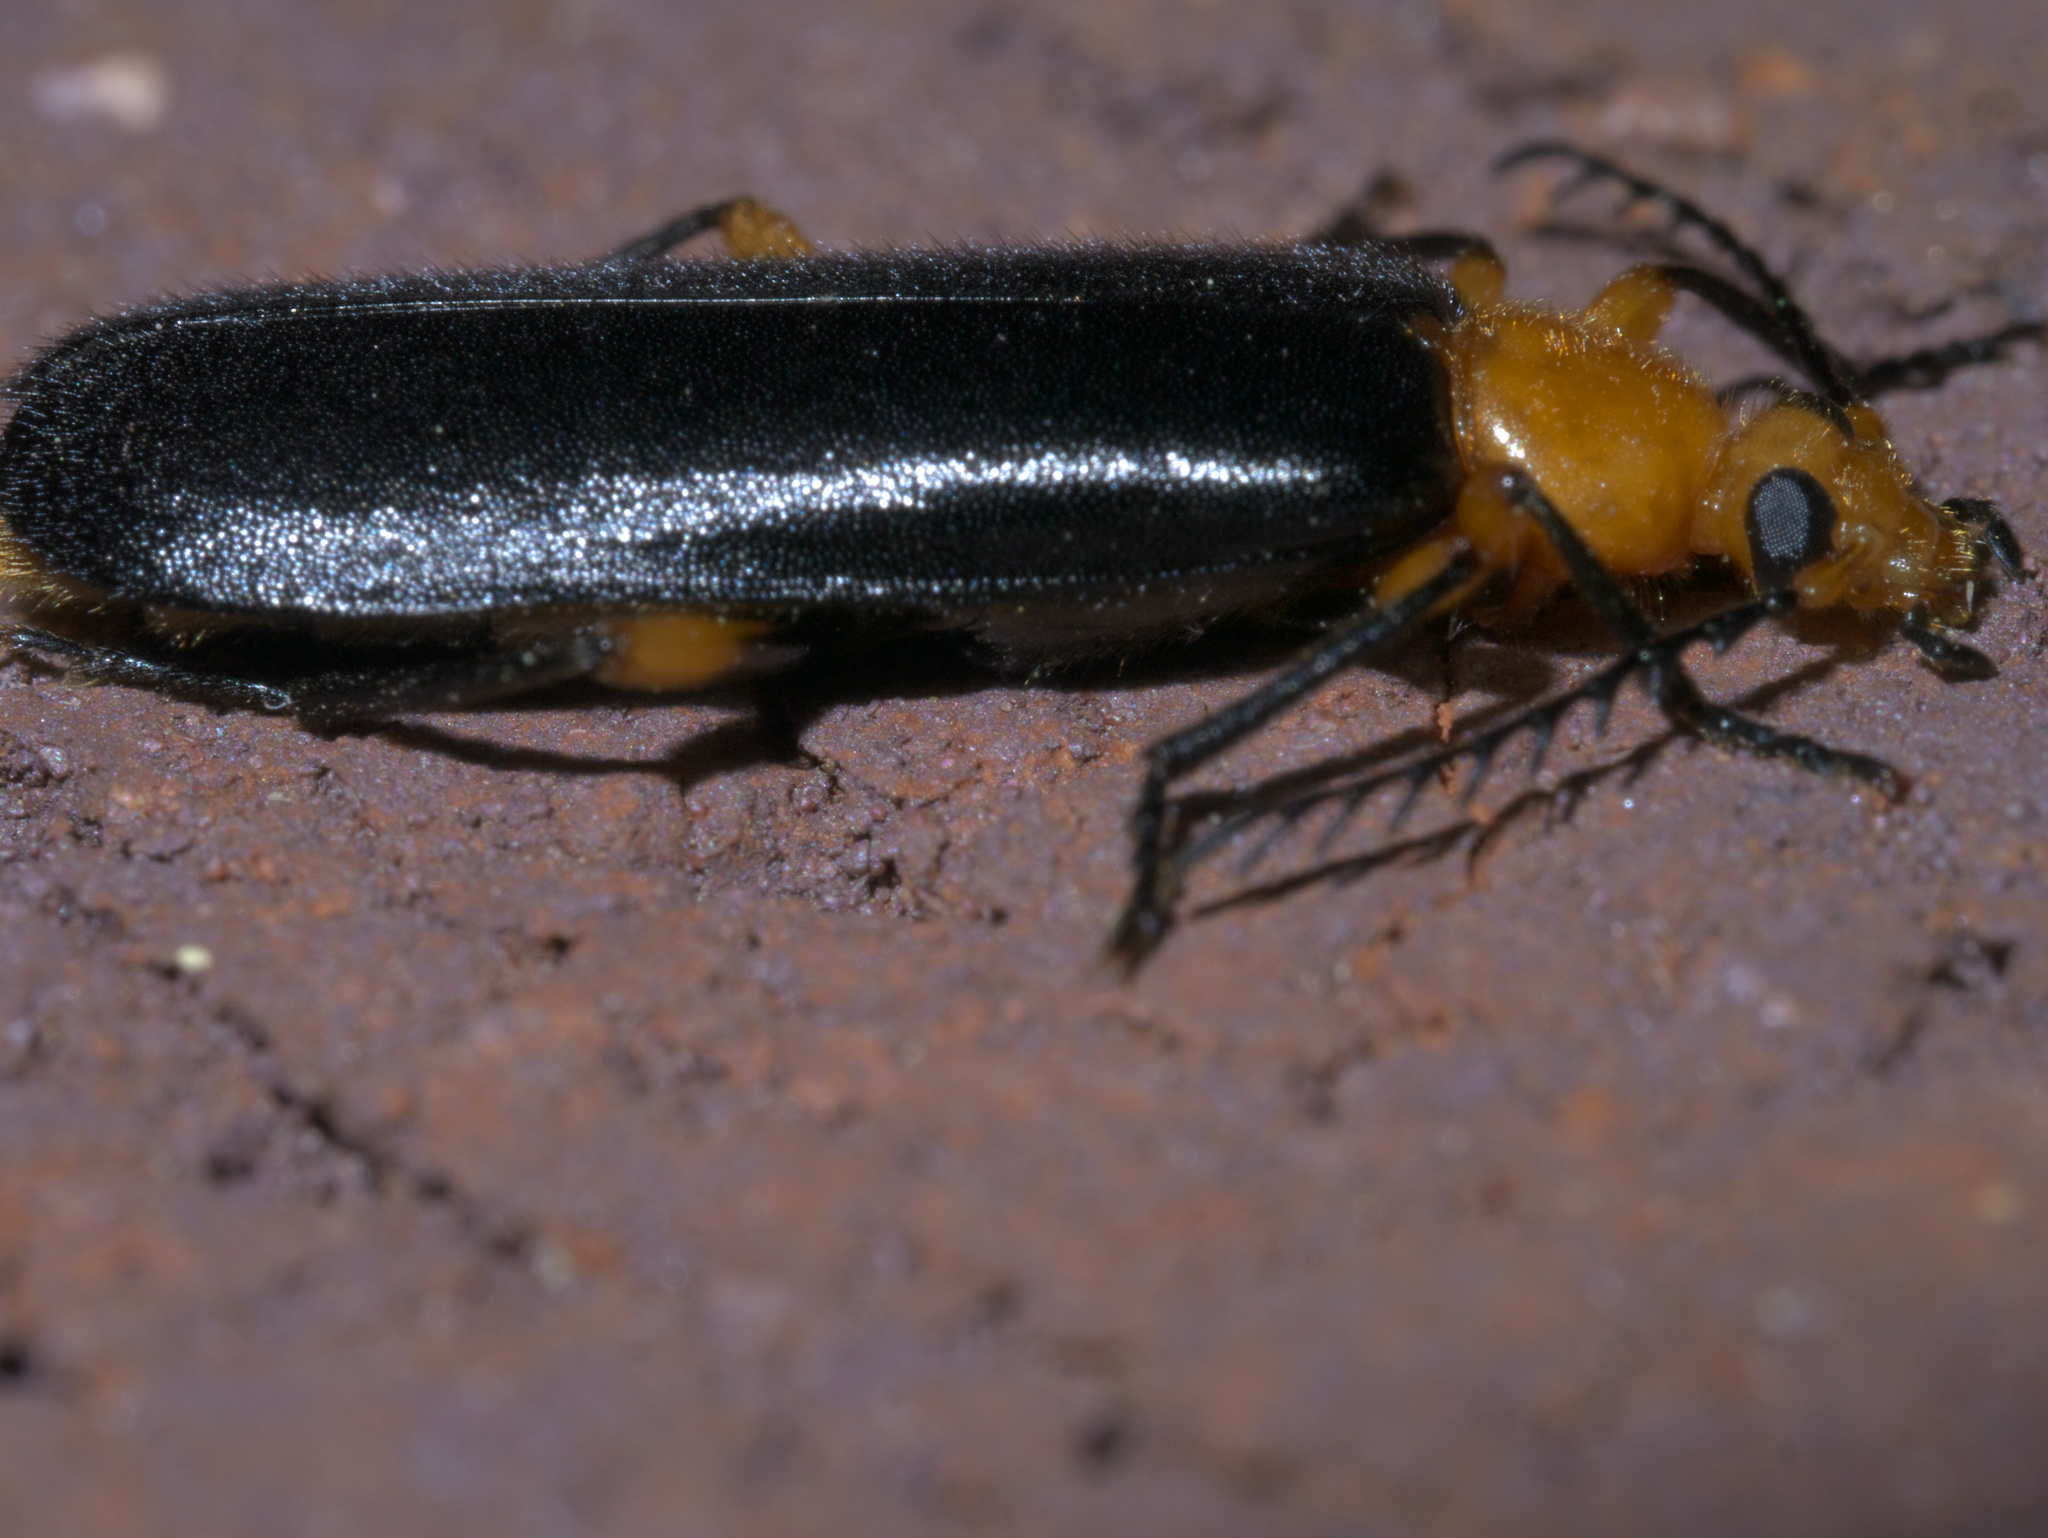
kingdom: Animalia
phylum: Arthropoda
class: Insecta
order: Coleoptera
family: Pyrochroidae
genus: Neopyrochroa
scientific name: Neopyrochroa femoralis
